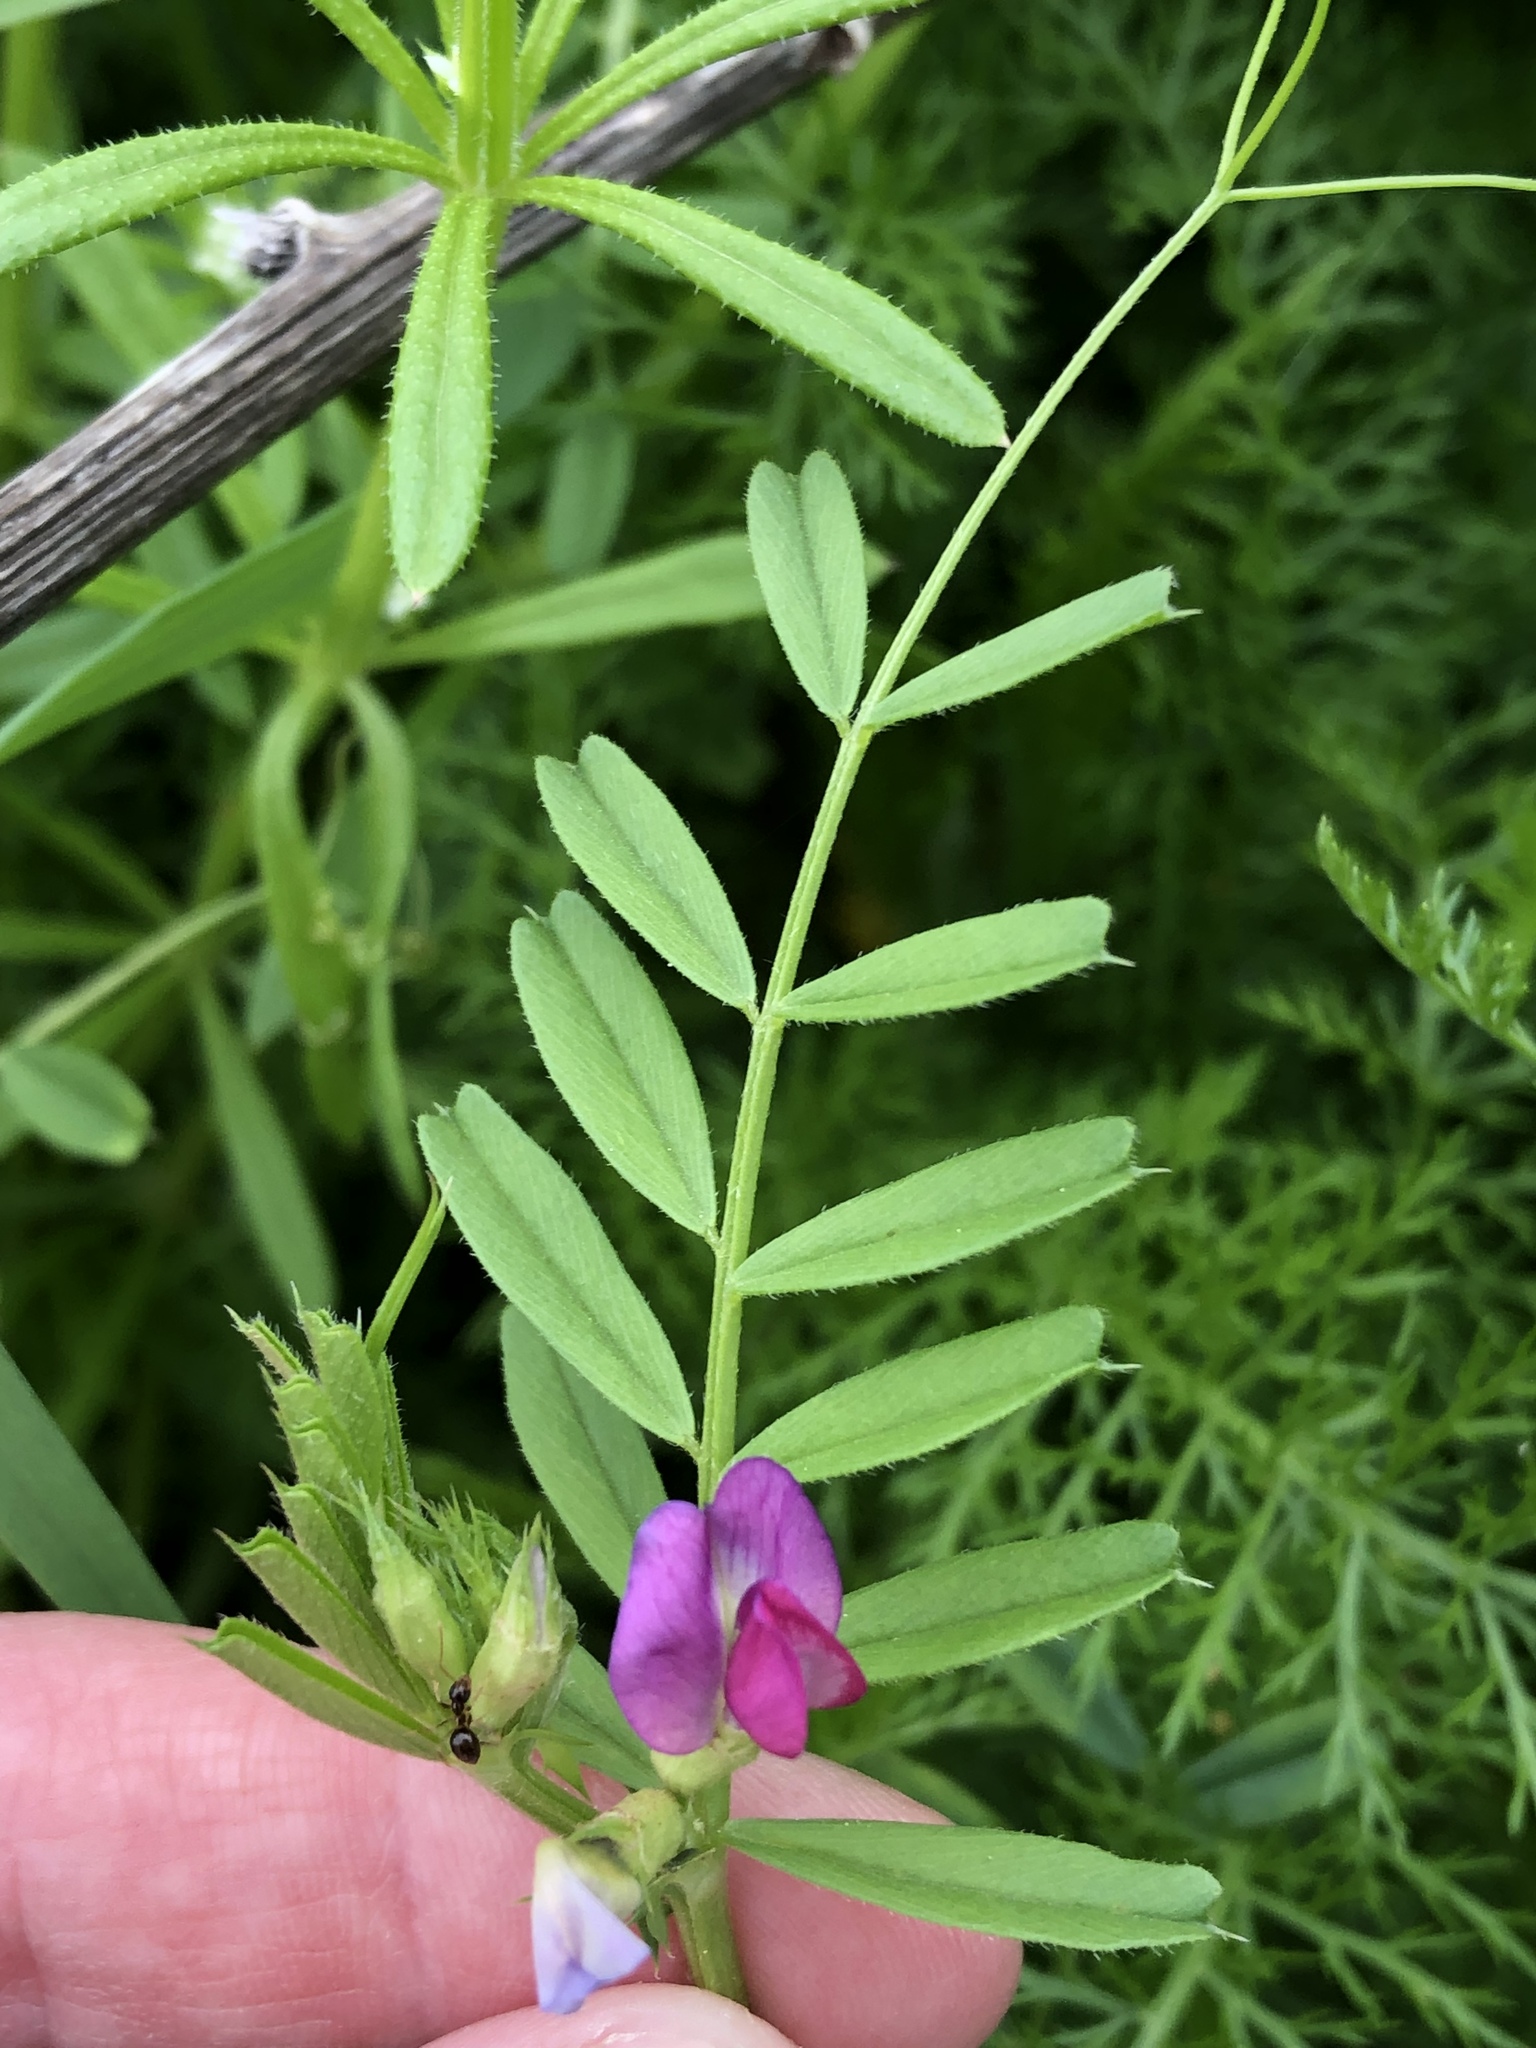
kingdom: Plantae
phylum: Tracheophyta
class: Magnoliopsida
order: Fabales
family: Fabaceae
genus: Vicia
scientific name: Vicia sativa
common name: Garden vetch
